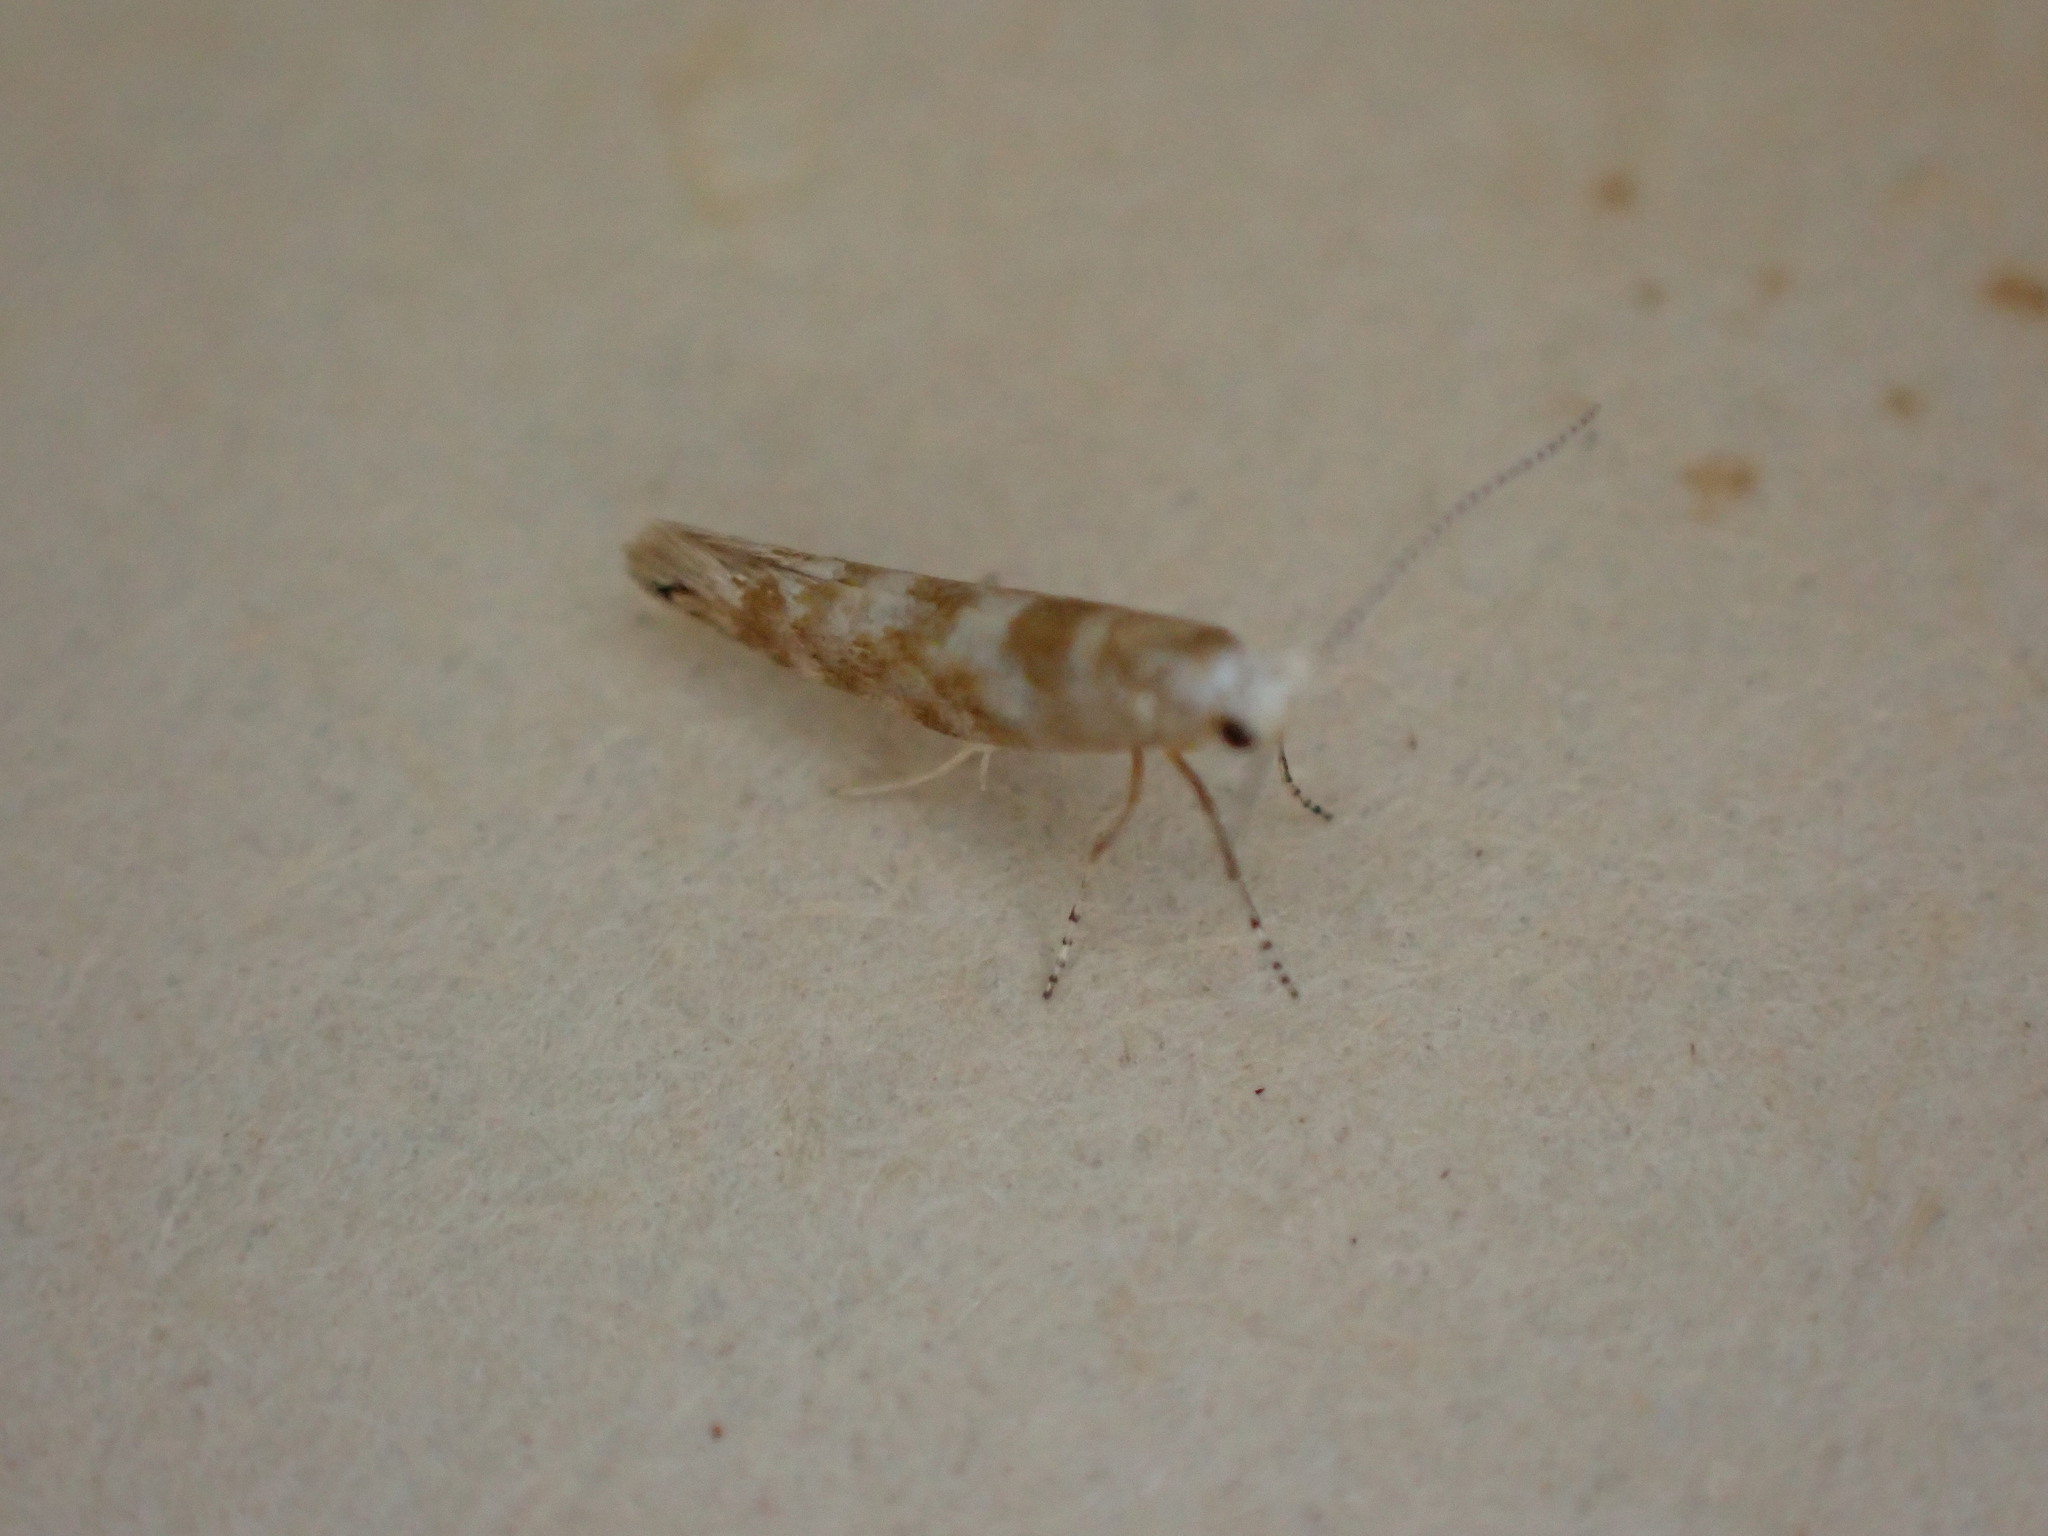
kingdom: Animalia
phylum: Arthropoda
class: Insecta
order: Lepidoptera
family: Argyresthiidae
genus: Argyresthia
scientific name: Argyresthia cupressella
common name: Cypress tip moth
